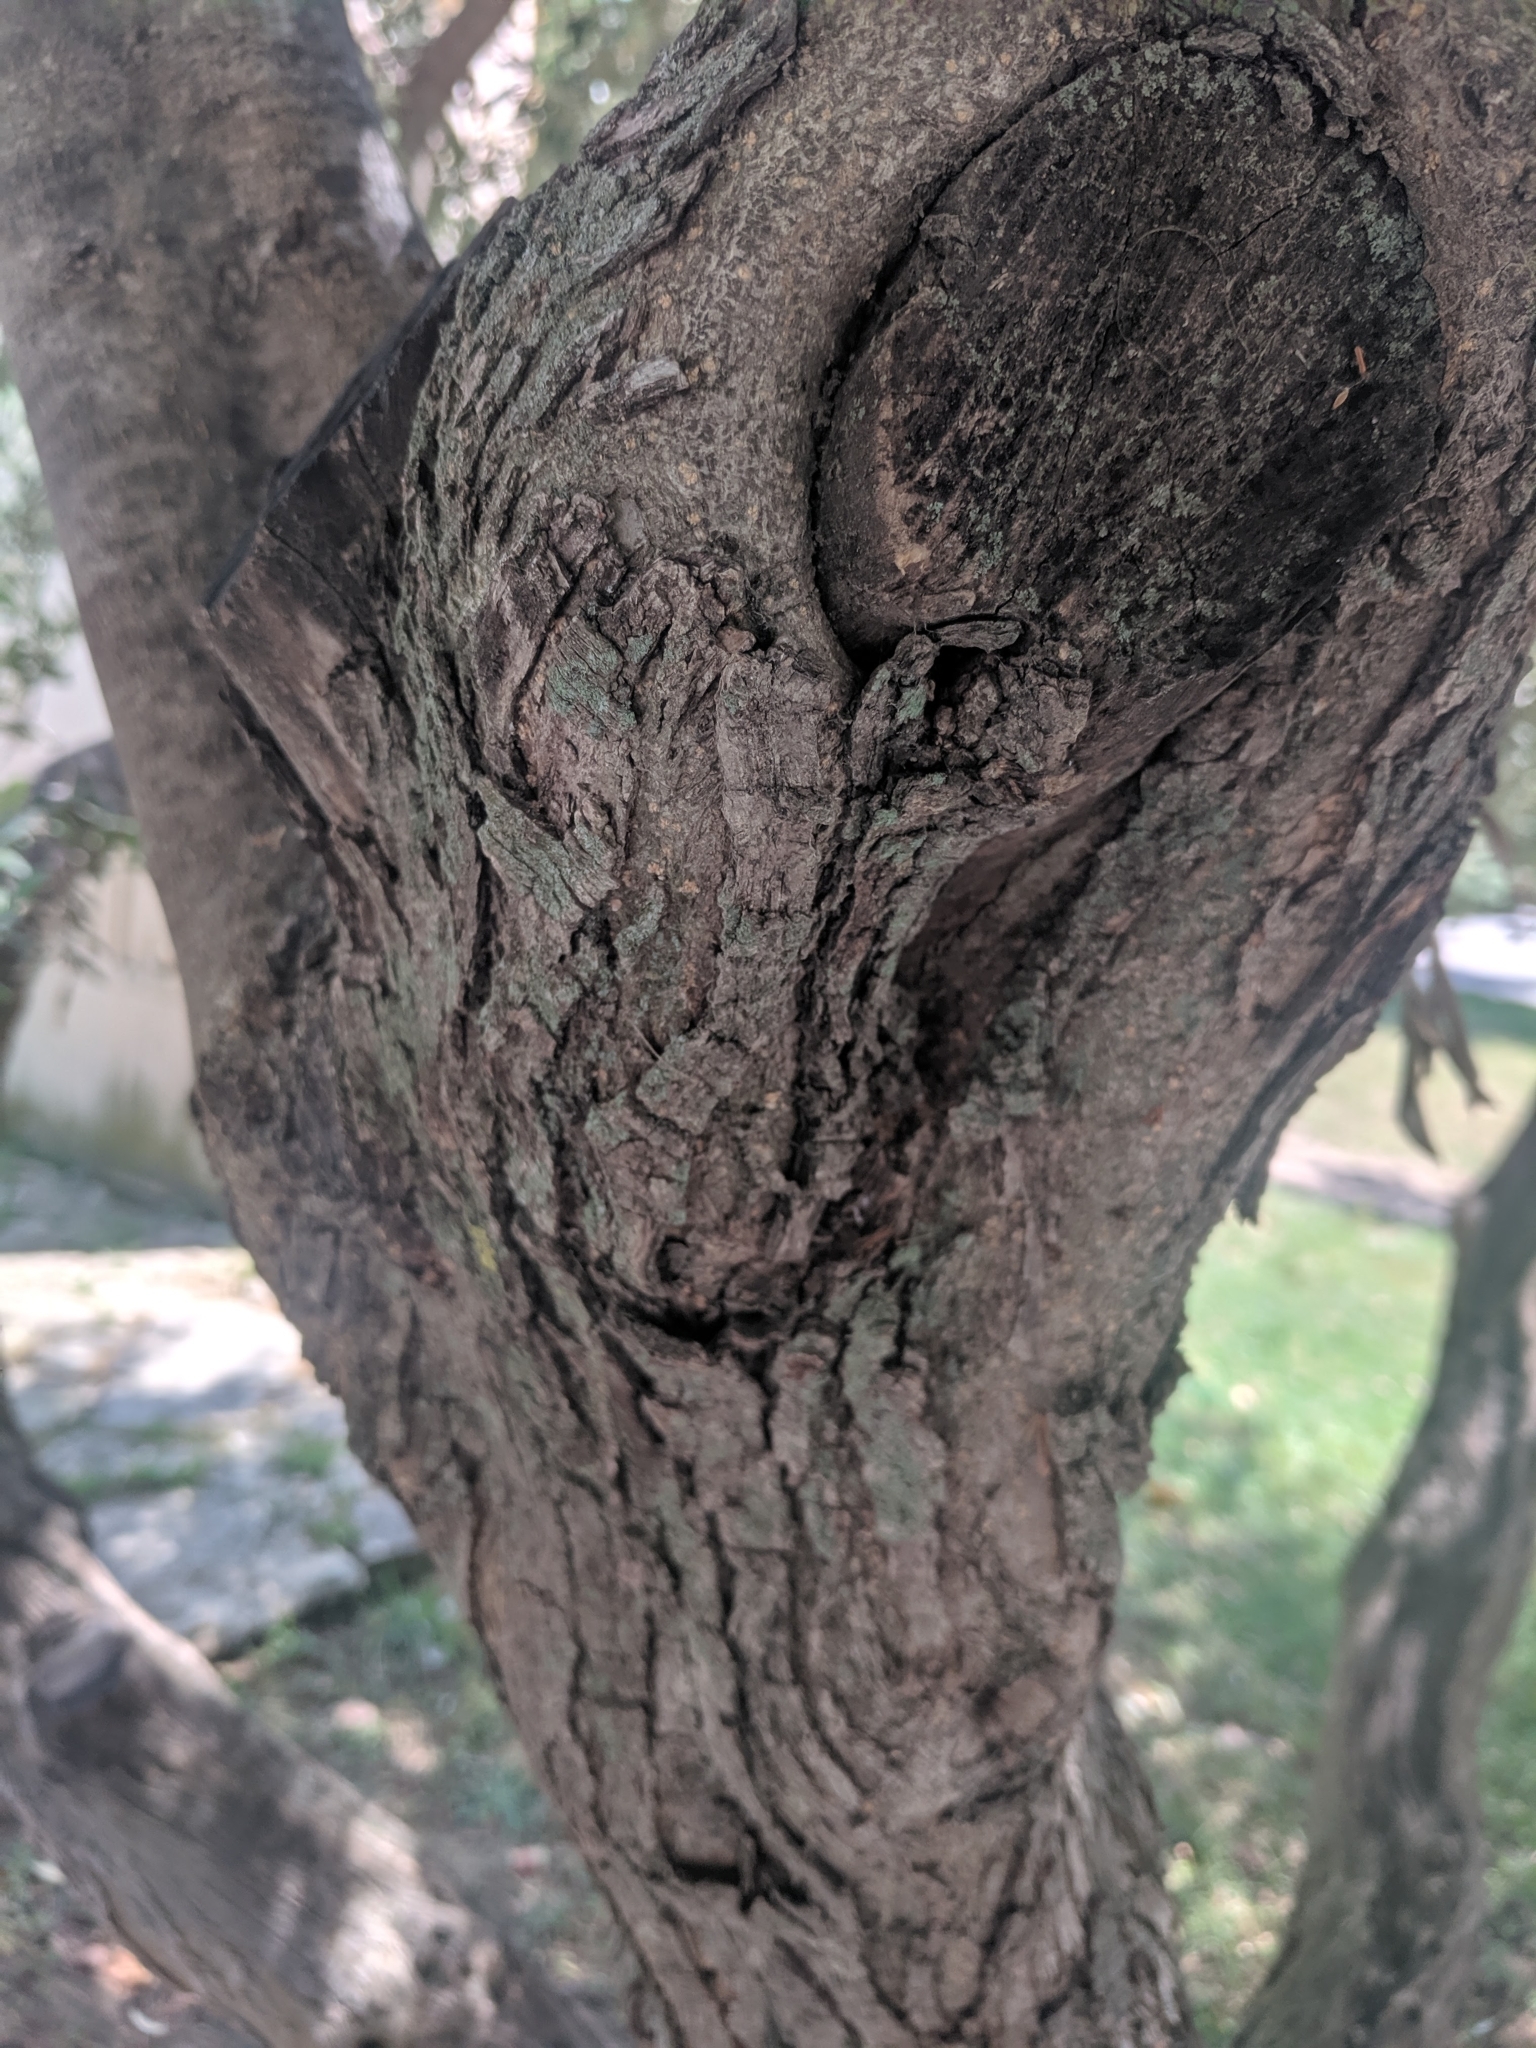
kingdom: Plantae
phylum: Tracheophyta
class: Magnoliopsida
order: Lamiales
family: Oleaceae
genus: Olea
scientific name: Olea europaea
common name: Olive
